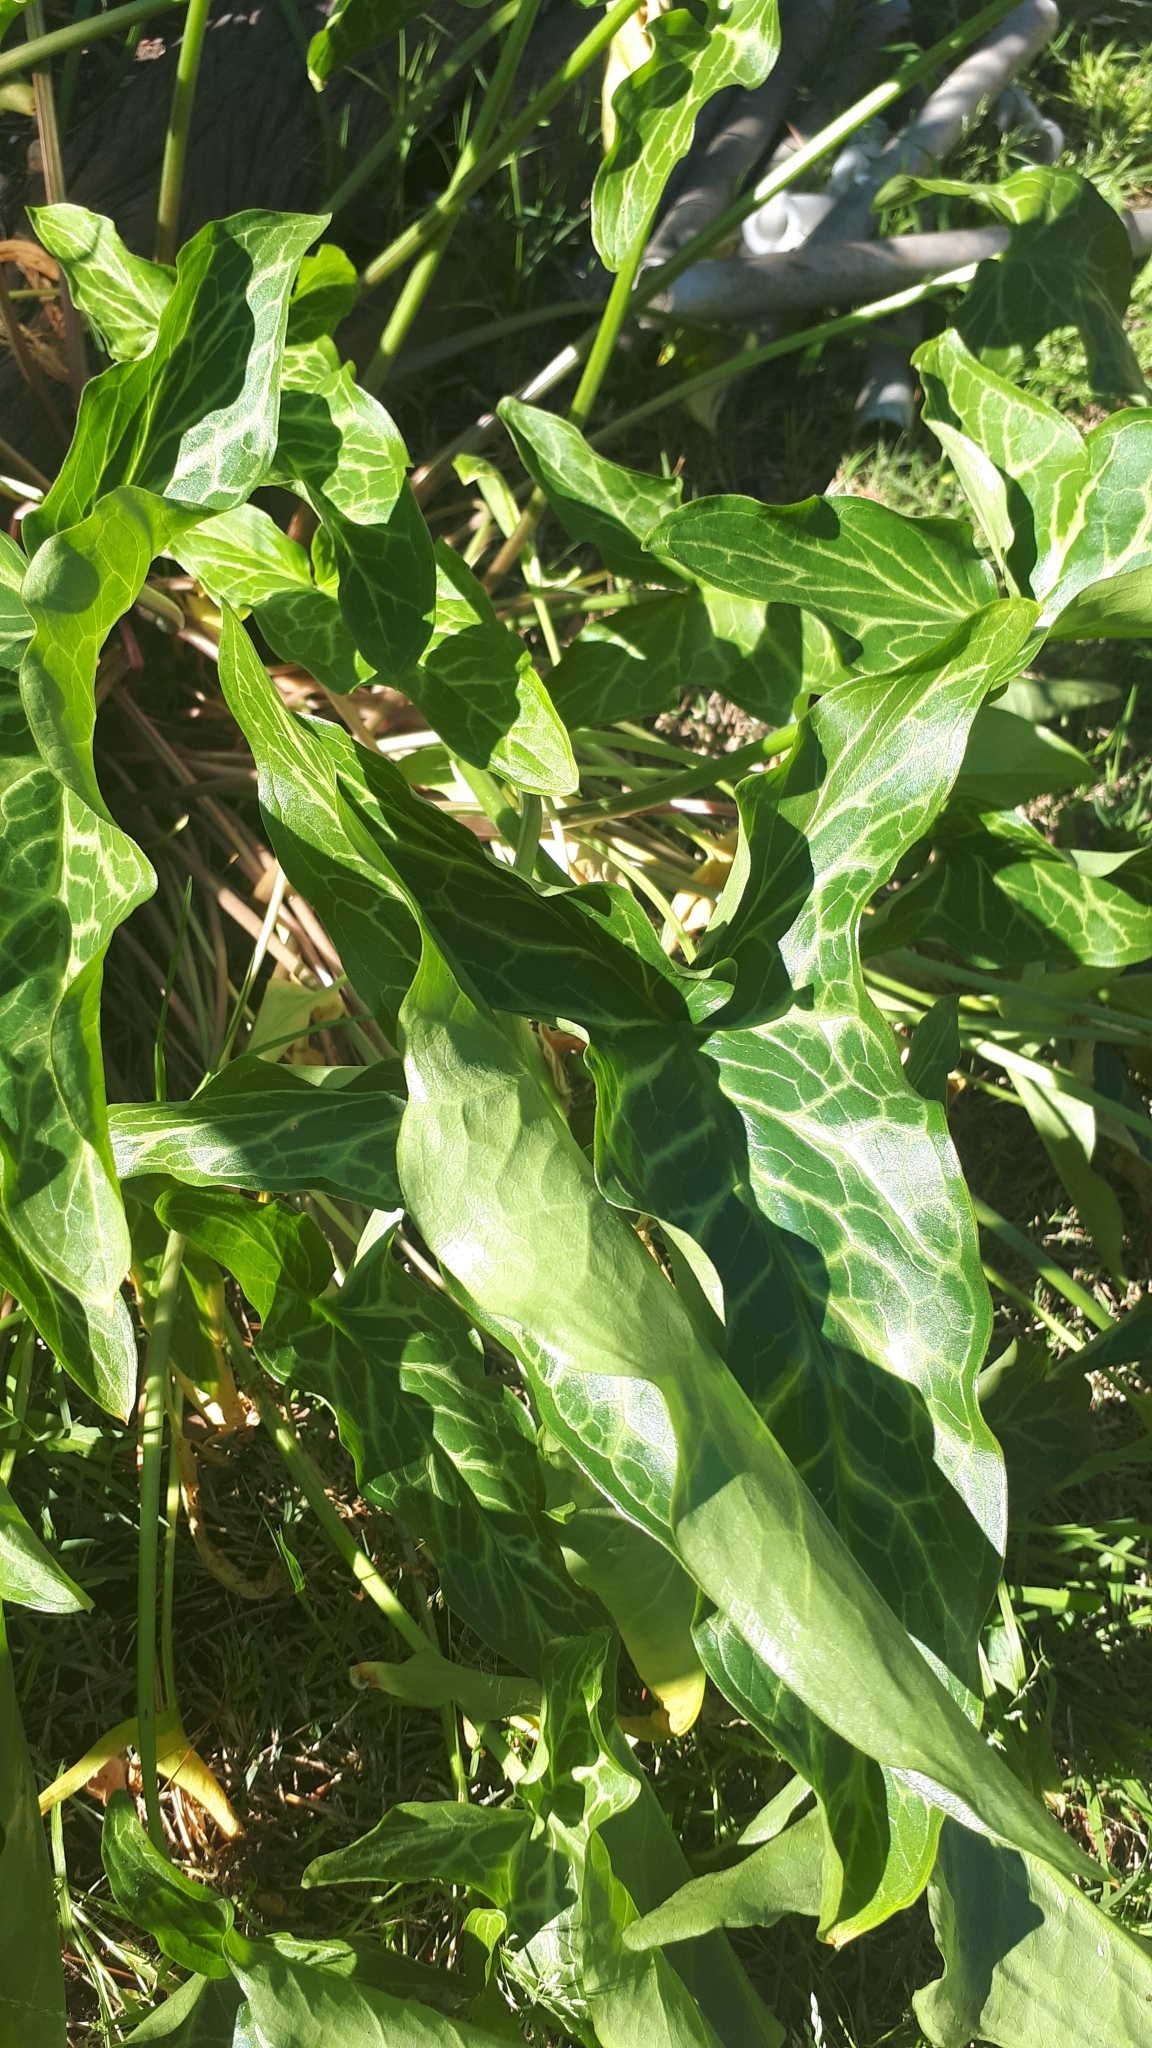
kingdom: Plantae
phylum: Tracheophyta
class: Liliopsida
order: Alismatales
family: Araceae
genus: Arum
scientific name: Arum italicum
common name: Italian lords-and-ladies
